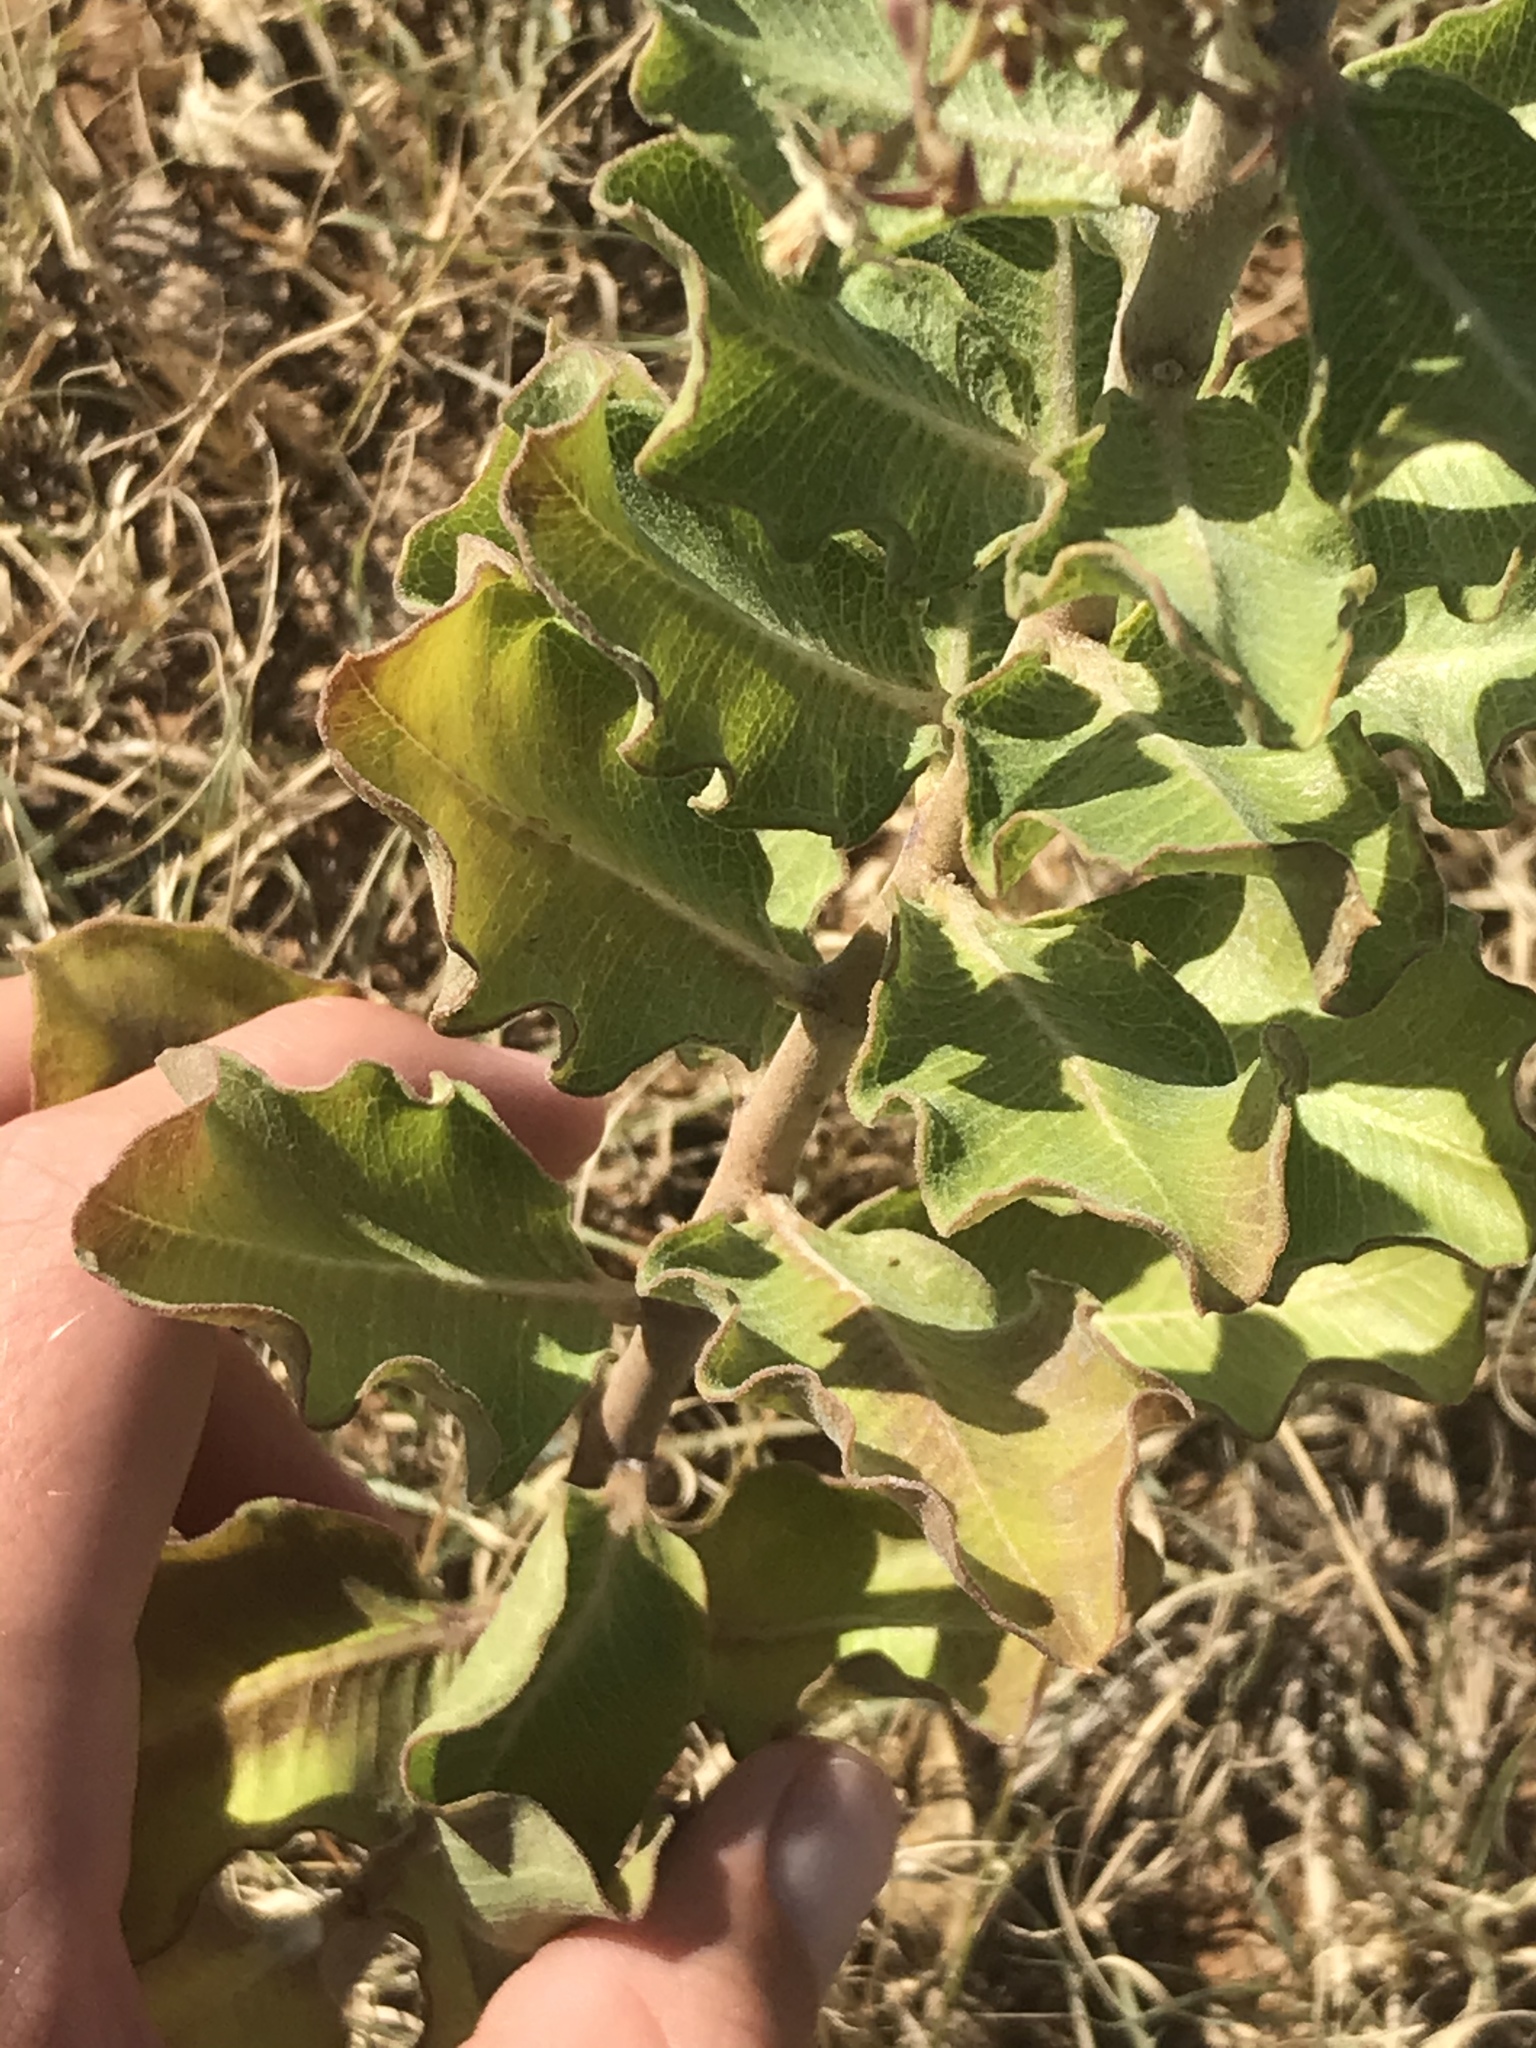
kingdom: Plantae
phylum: Tracheophyta
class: Magnoliopsida
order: Gentianales
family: Apocynaceae
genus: Asclepias
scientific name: Asclepias viridiflora
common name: Green comet milkweed
